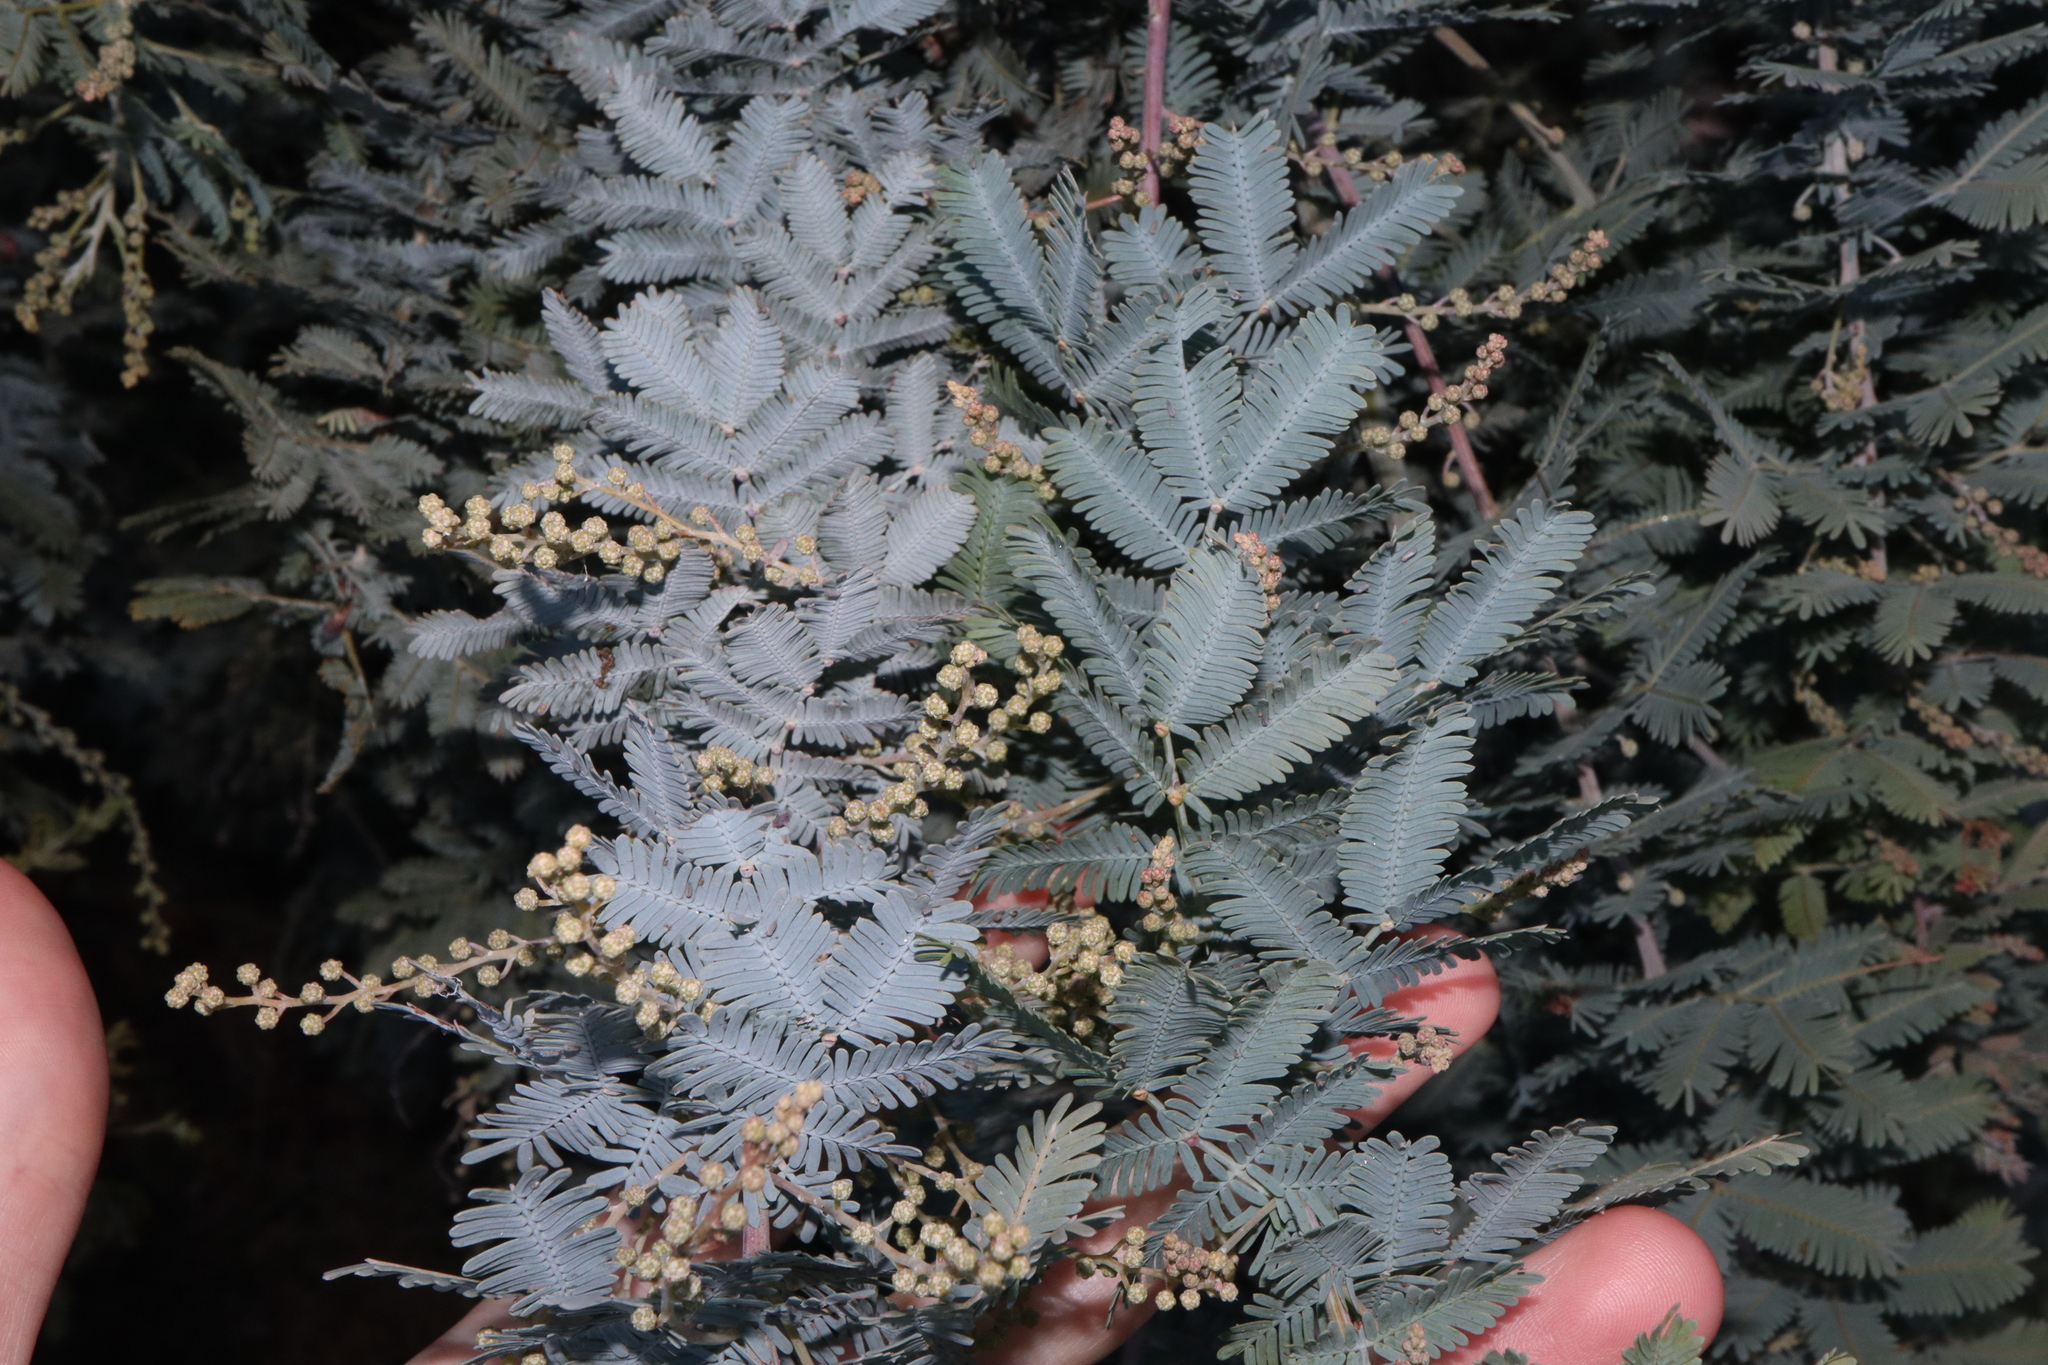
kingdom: Plantae
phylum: Tracheophyta
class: Magnoliopsida
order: Fabales
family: Fabaceae
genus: Acacia
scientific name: Acacia baileyana
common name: Cootamundra wattle
